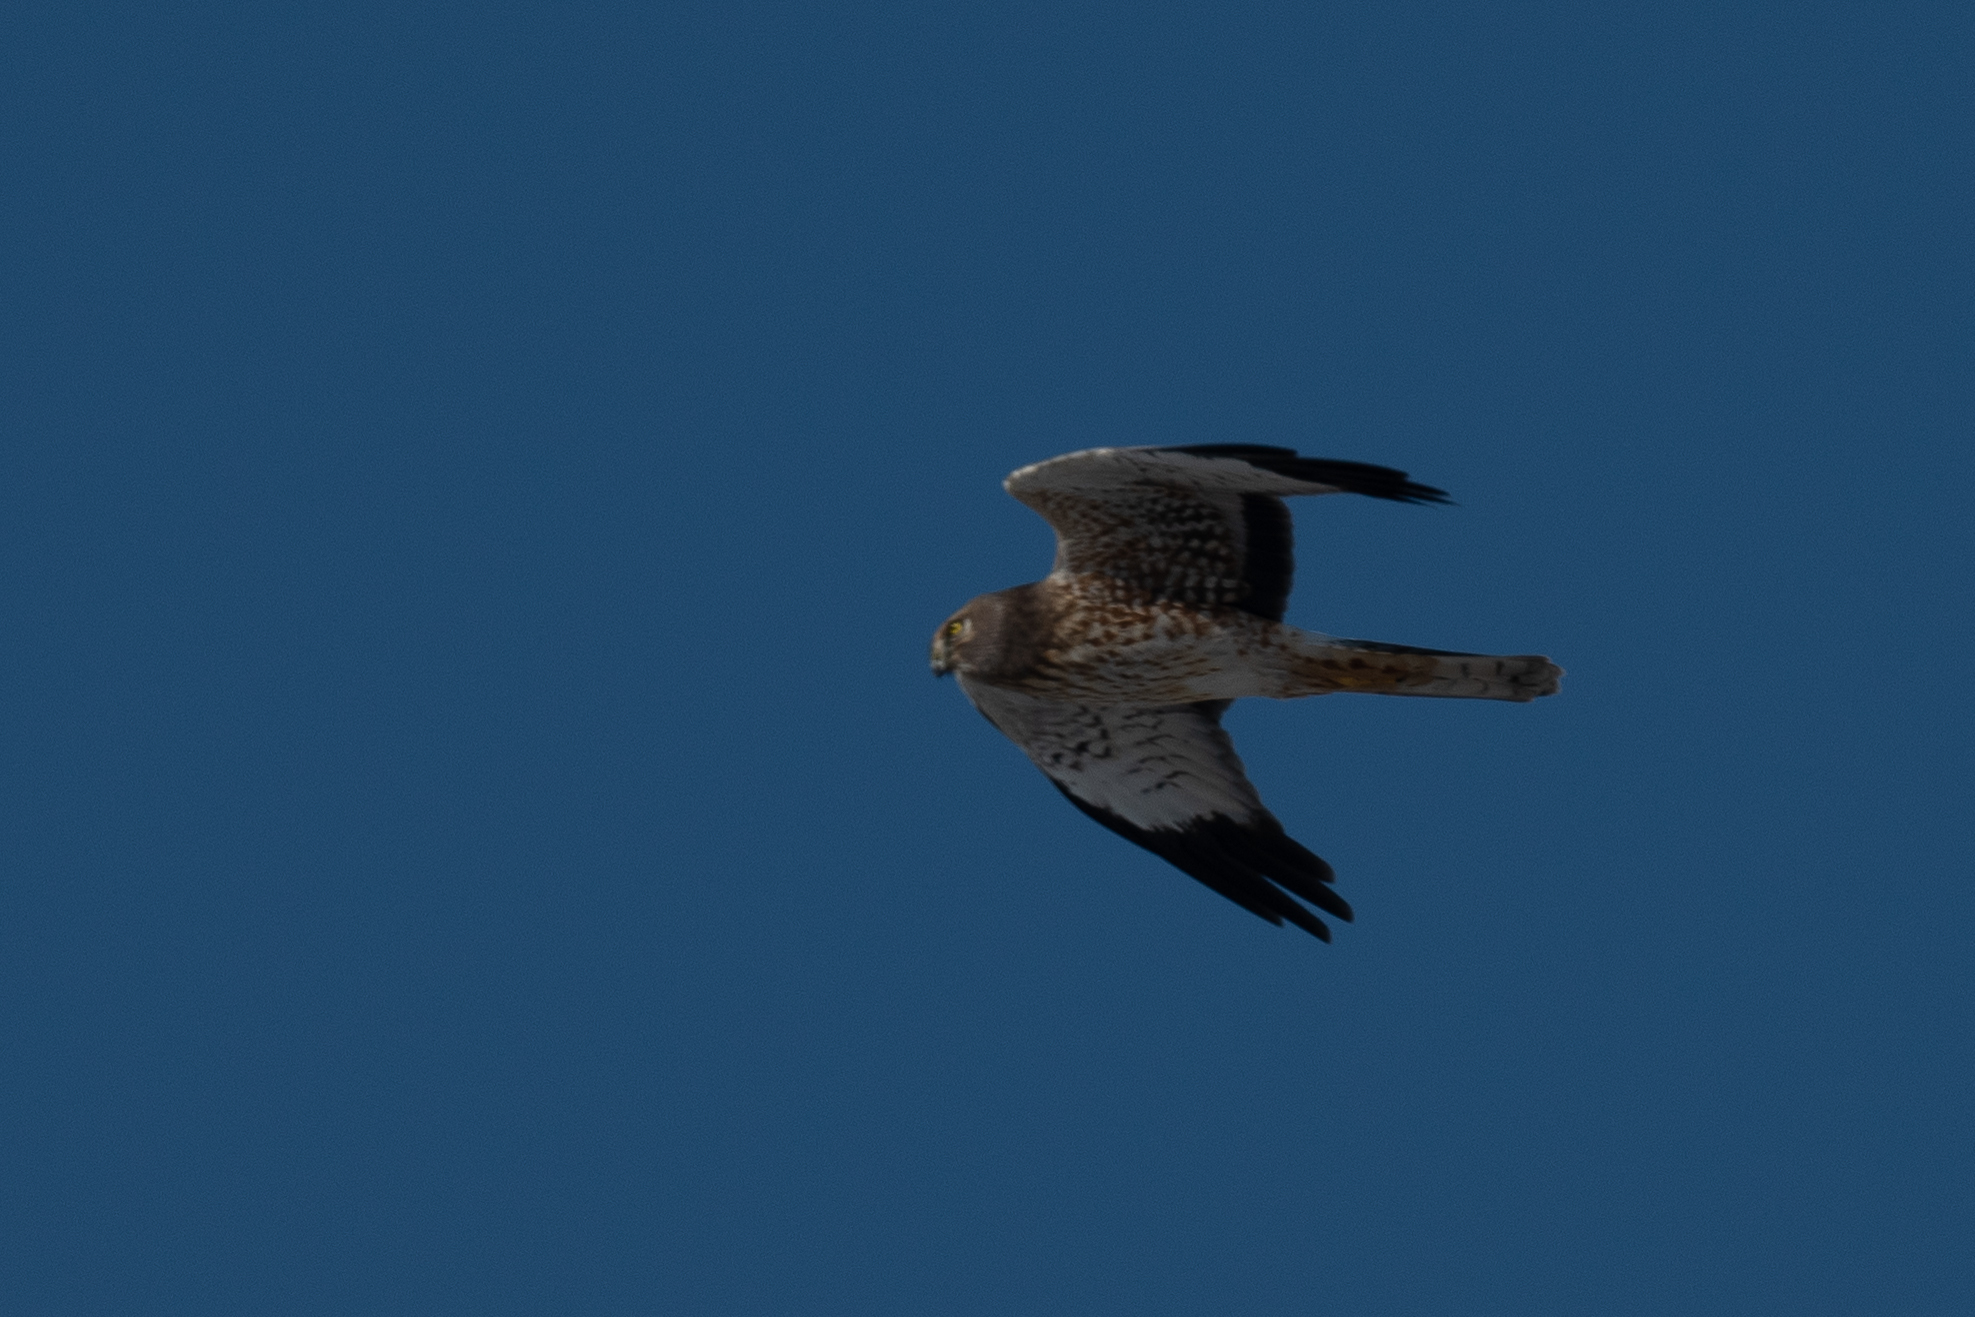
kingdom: Animalia
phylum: Chordata
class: Aves
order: Accipitriformes
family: Accipitridae
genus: Circus
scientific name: Circus cyaneus
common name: Hen harrier
